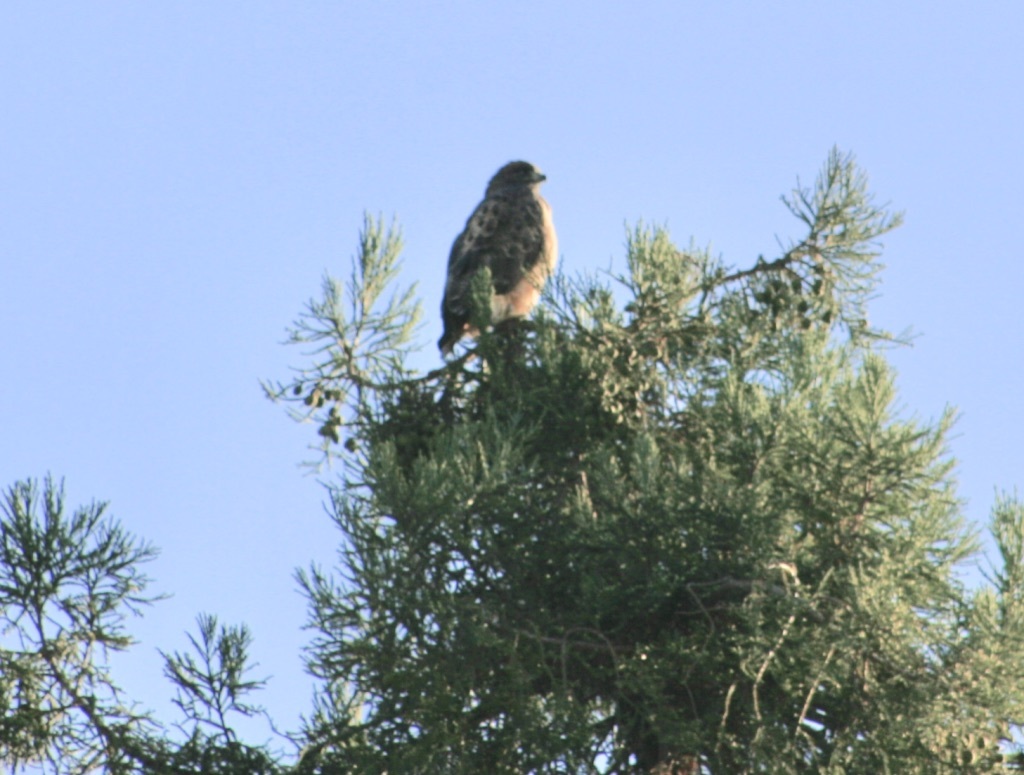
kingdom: Animalia
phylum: Chordata
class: Aves
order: Accipitriformes
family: Accipitridae
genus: Buteo
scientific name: Buteo jamaicensis
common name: Red-tailed hawk
